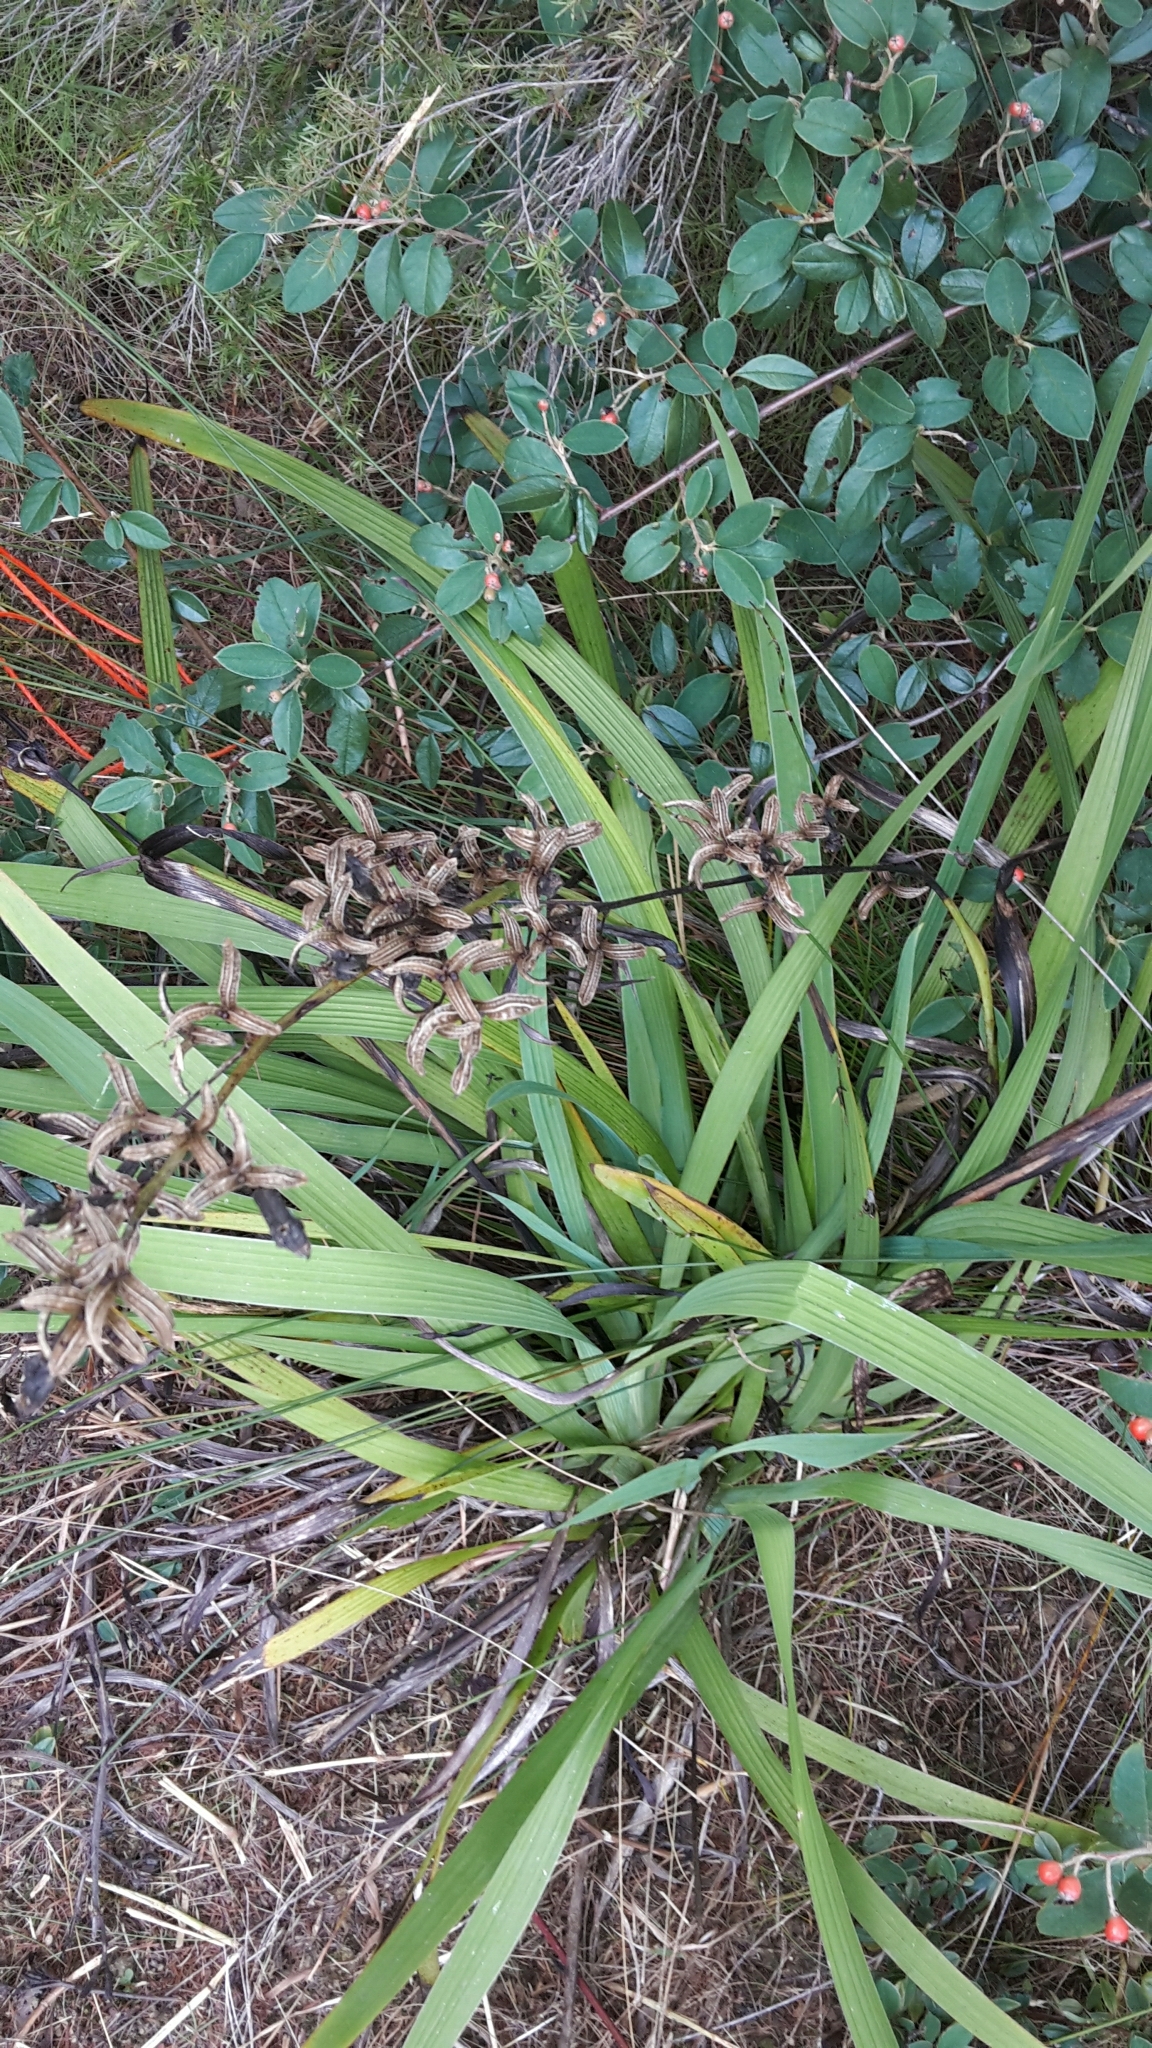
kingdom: Plantae
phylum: Tracheophyta
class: Liliopsida
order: Asparagales
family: Iridaceae
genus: Aristea
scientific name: Aristea ecklonii
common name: Blue corn-lily
